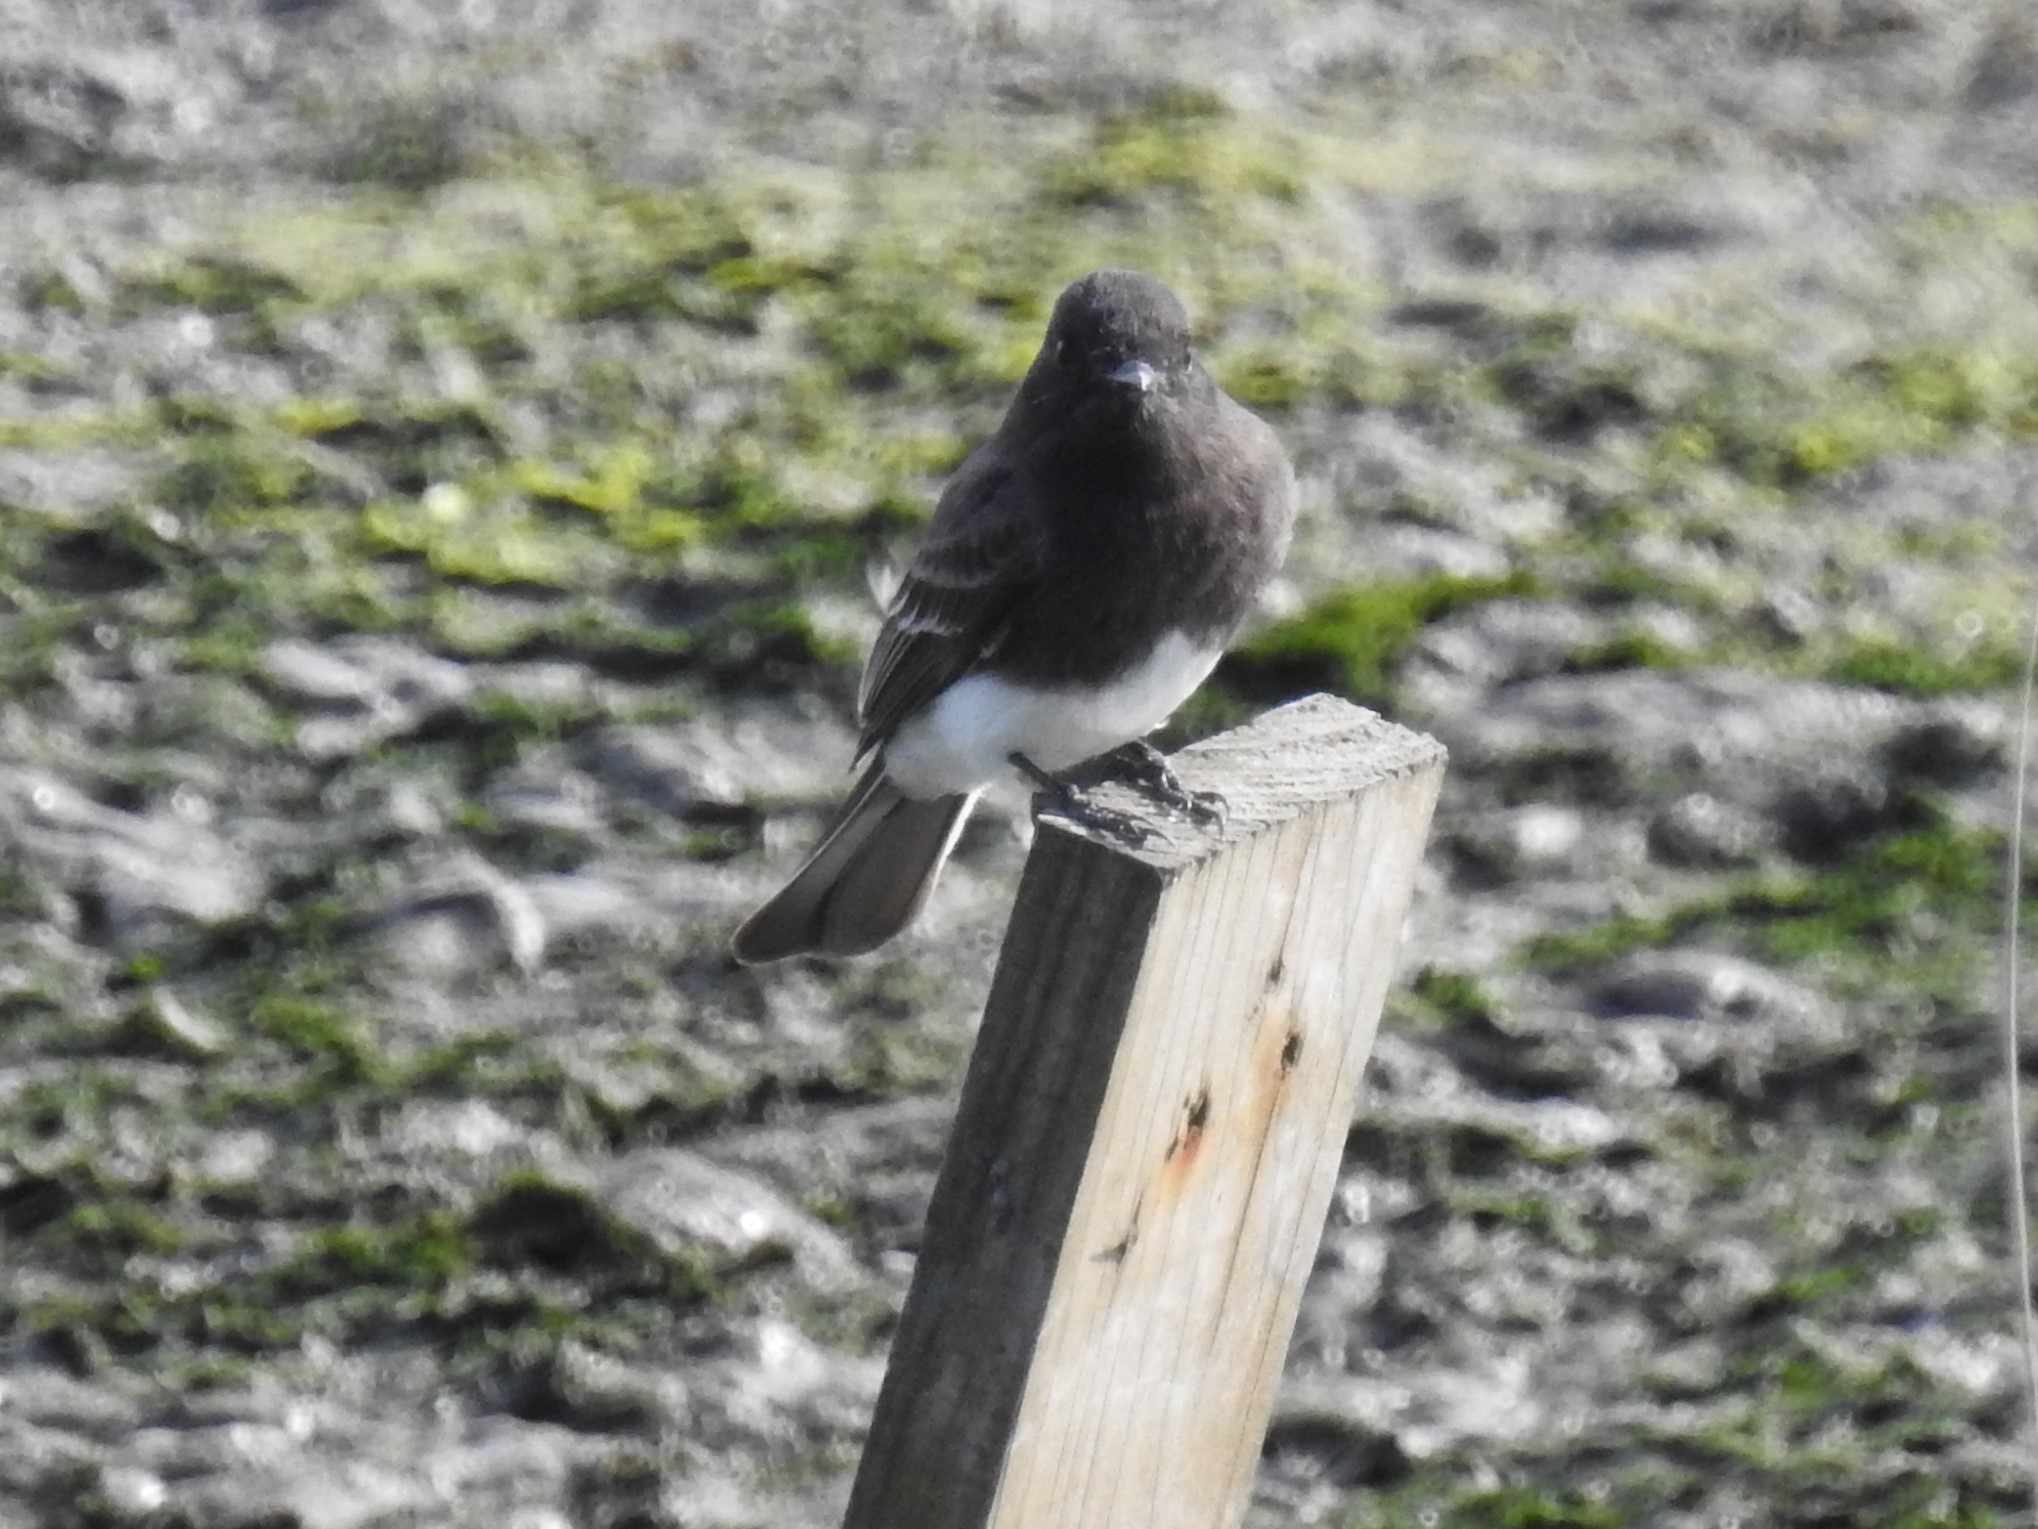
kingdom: Animalia
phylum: Chordata
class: Aves
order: Passeriformes
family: Tyrannidae
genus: Sayornis
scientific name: Sayornis nigricans
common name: Black phoebe
